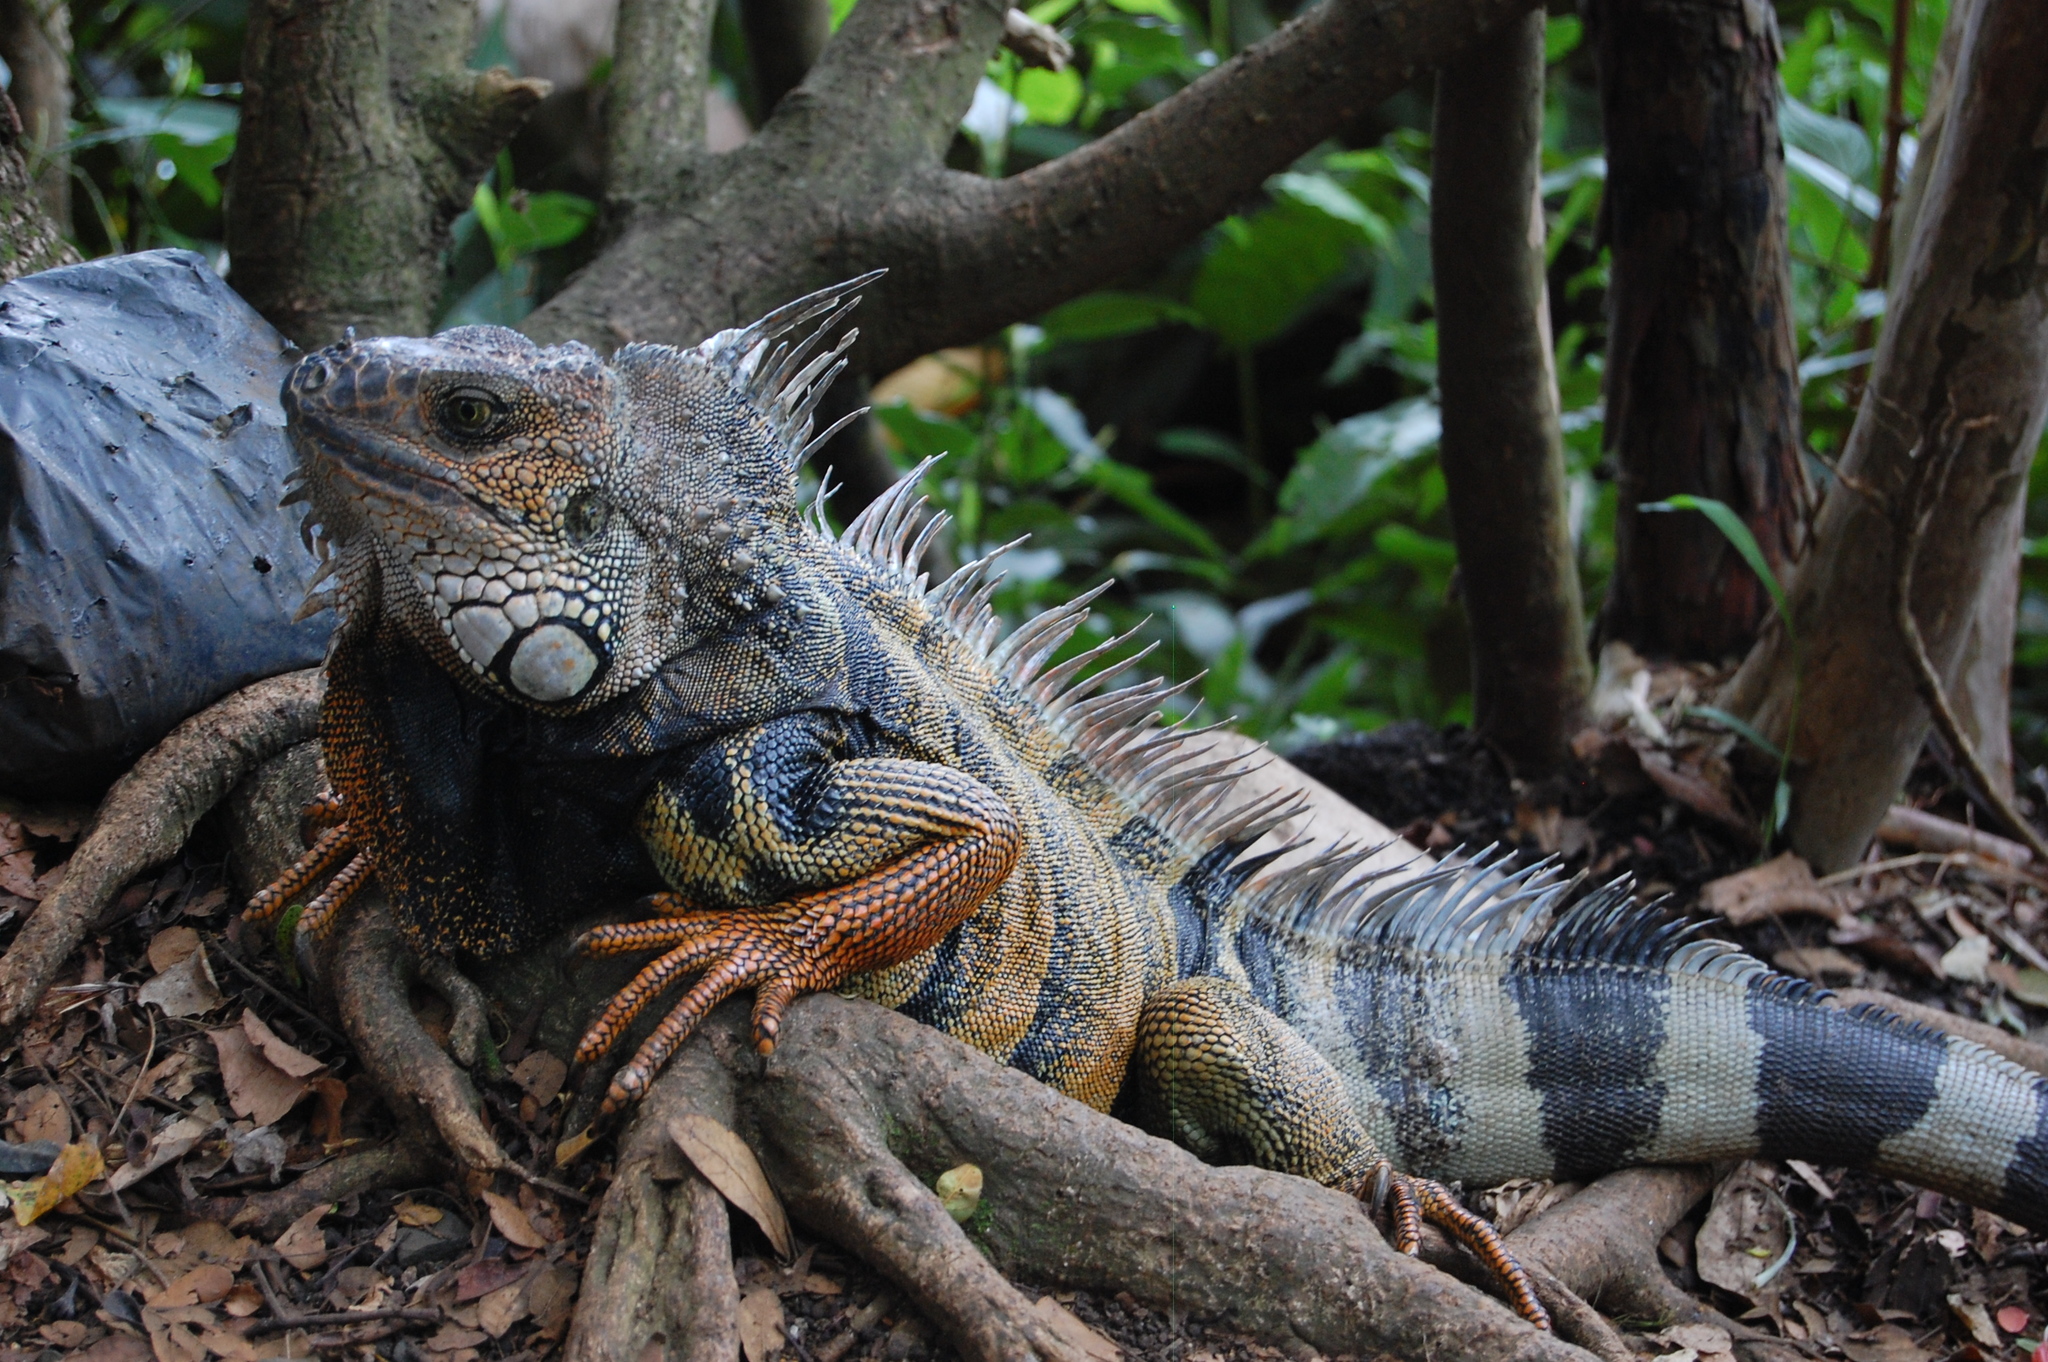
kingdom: Animalia
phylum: Chordata
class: Squamata
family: Iguanidae
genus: Iguana
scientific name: Iguana iguana
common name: Green iguana
